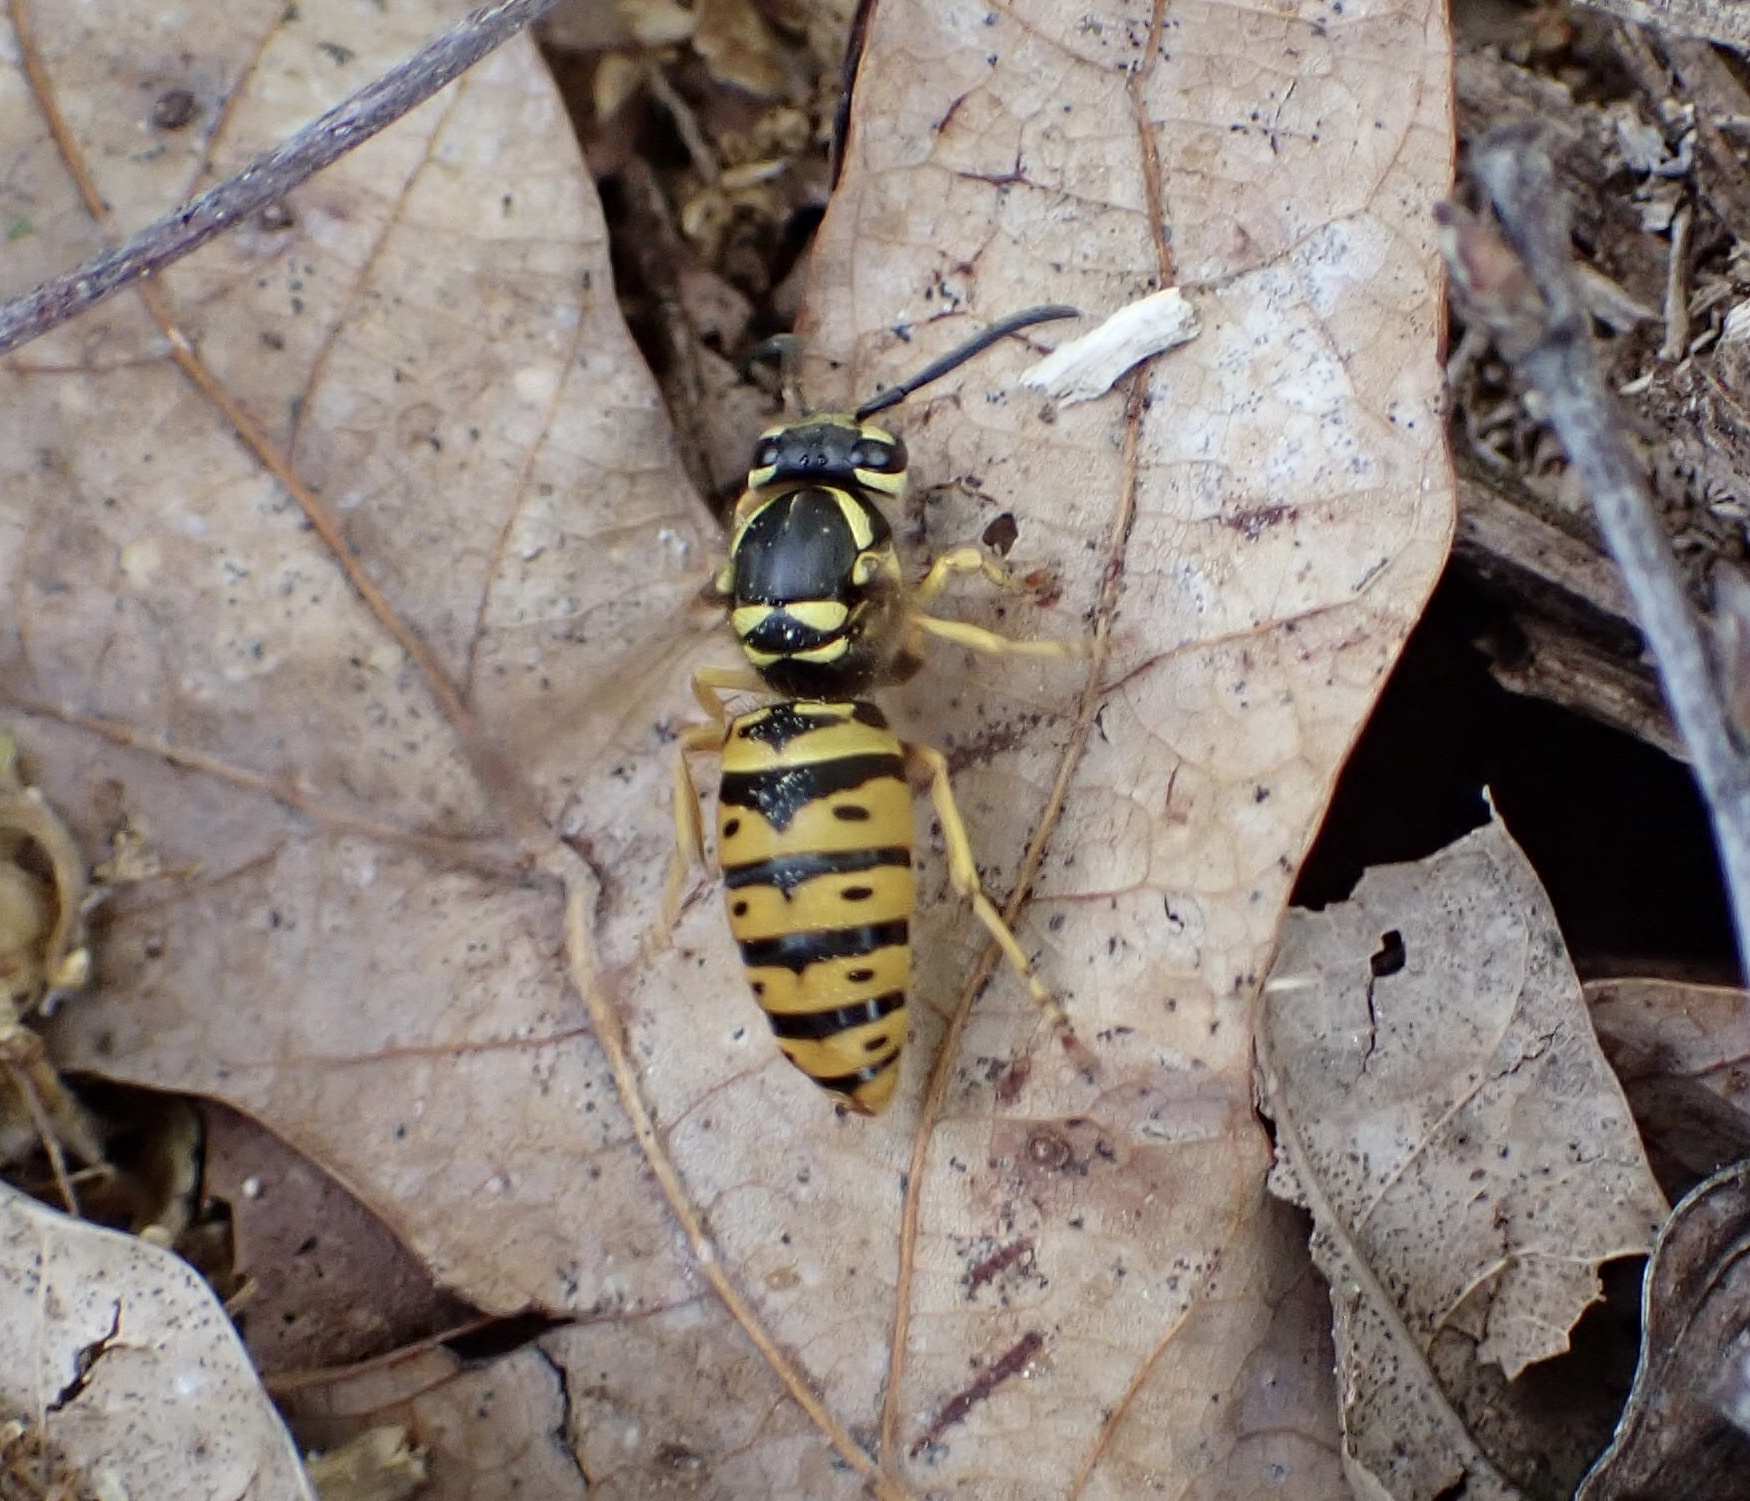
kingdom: Animalia
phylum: Arthropoda
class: Insecta
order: Hymenoptera
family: Vespidae
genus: Vespula
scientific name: Vespula maculifrons
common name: Eastern yellowjacket
